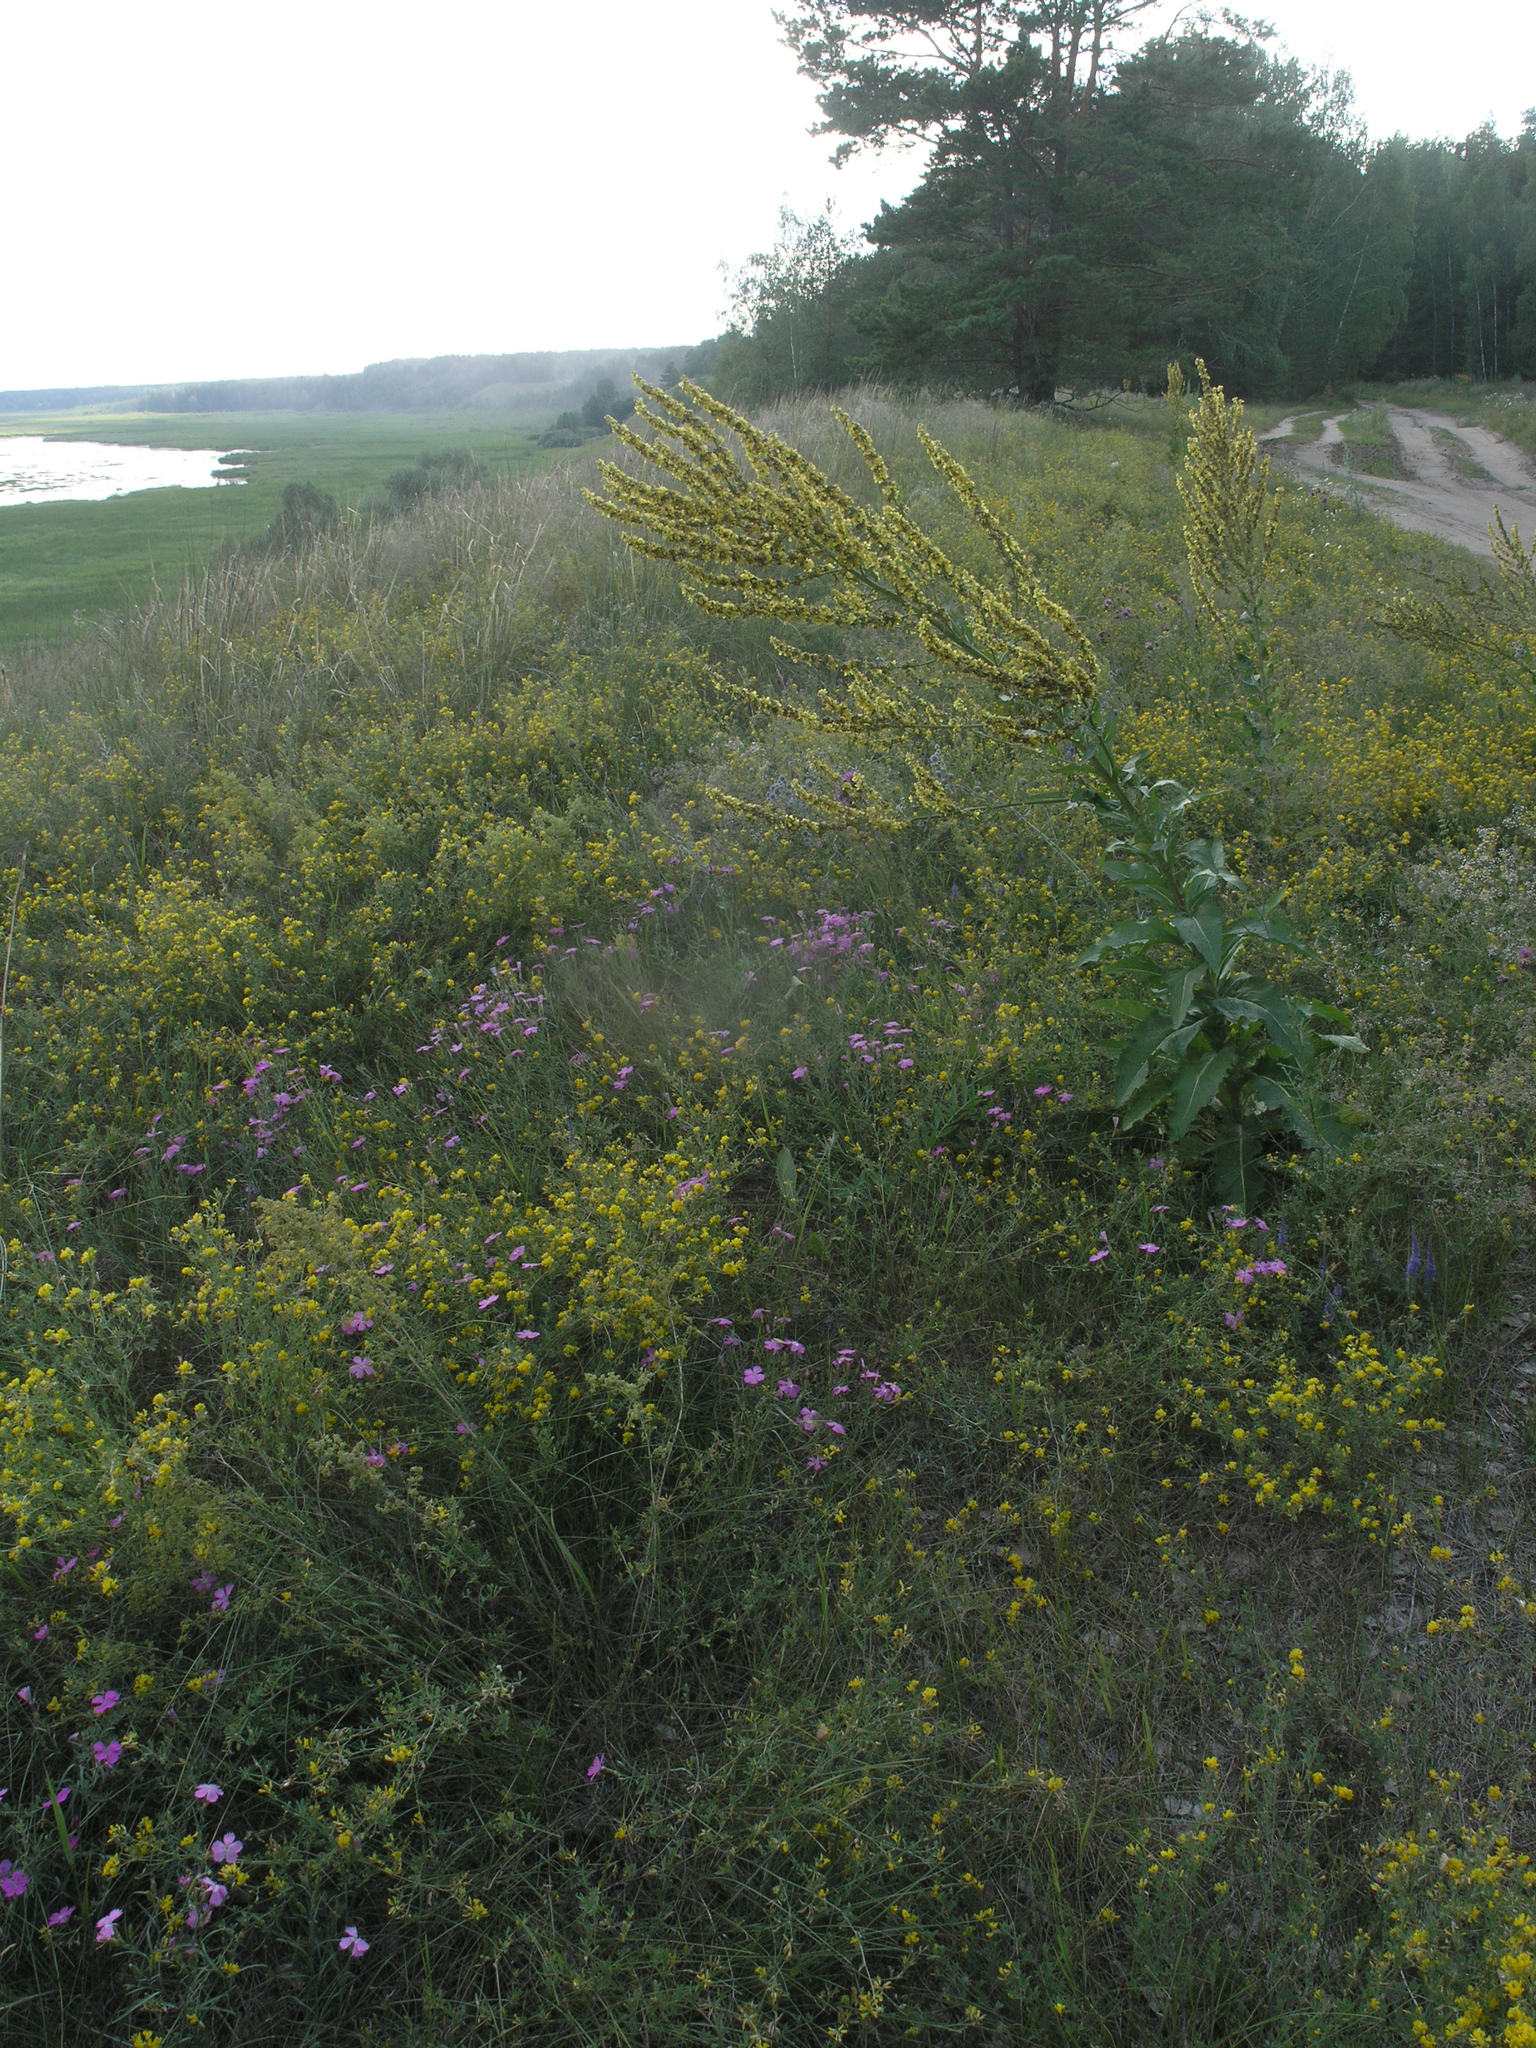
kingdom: Plantae
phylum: Tracheophyta
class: Magnoliopsida
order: Lamiales
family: Scrophulariaceae
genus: Verbascum
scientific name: Verbascum lychnitis
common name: White mullein
